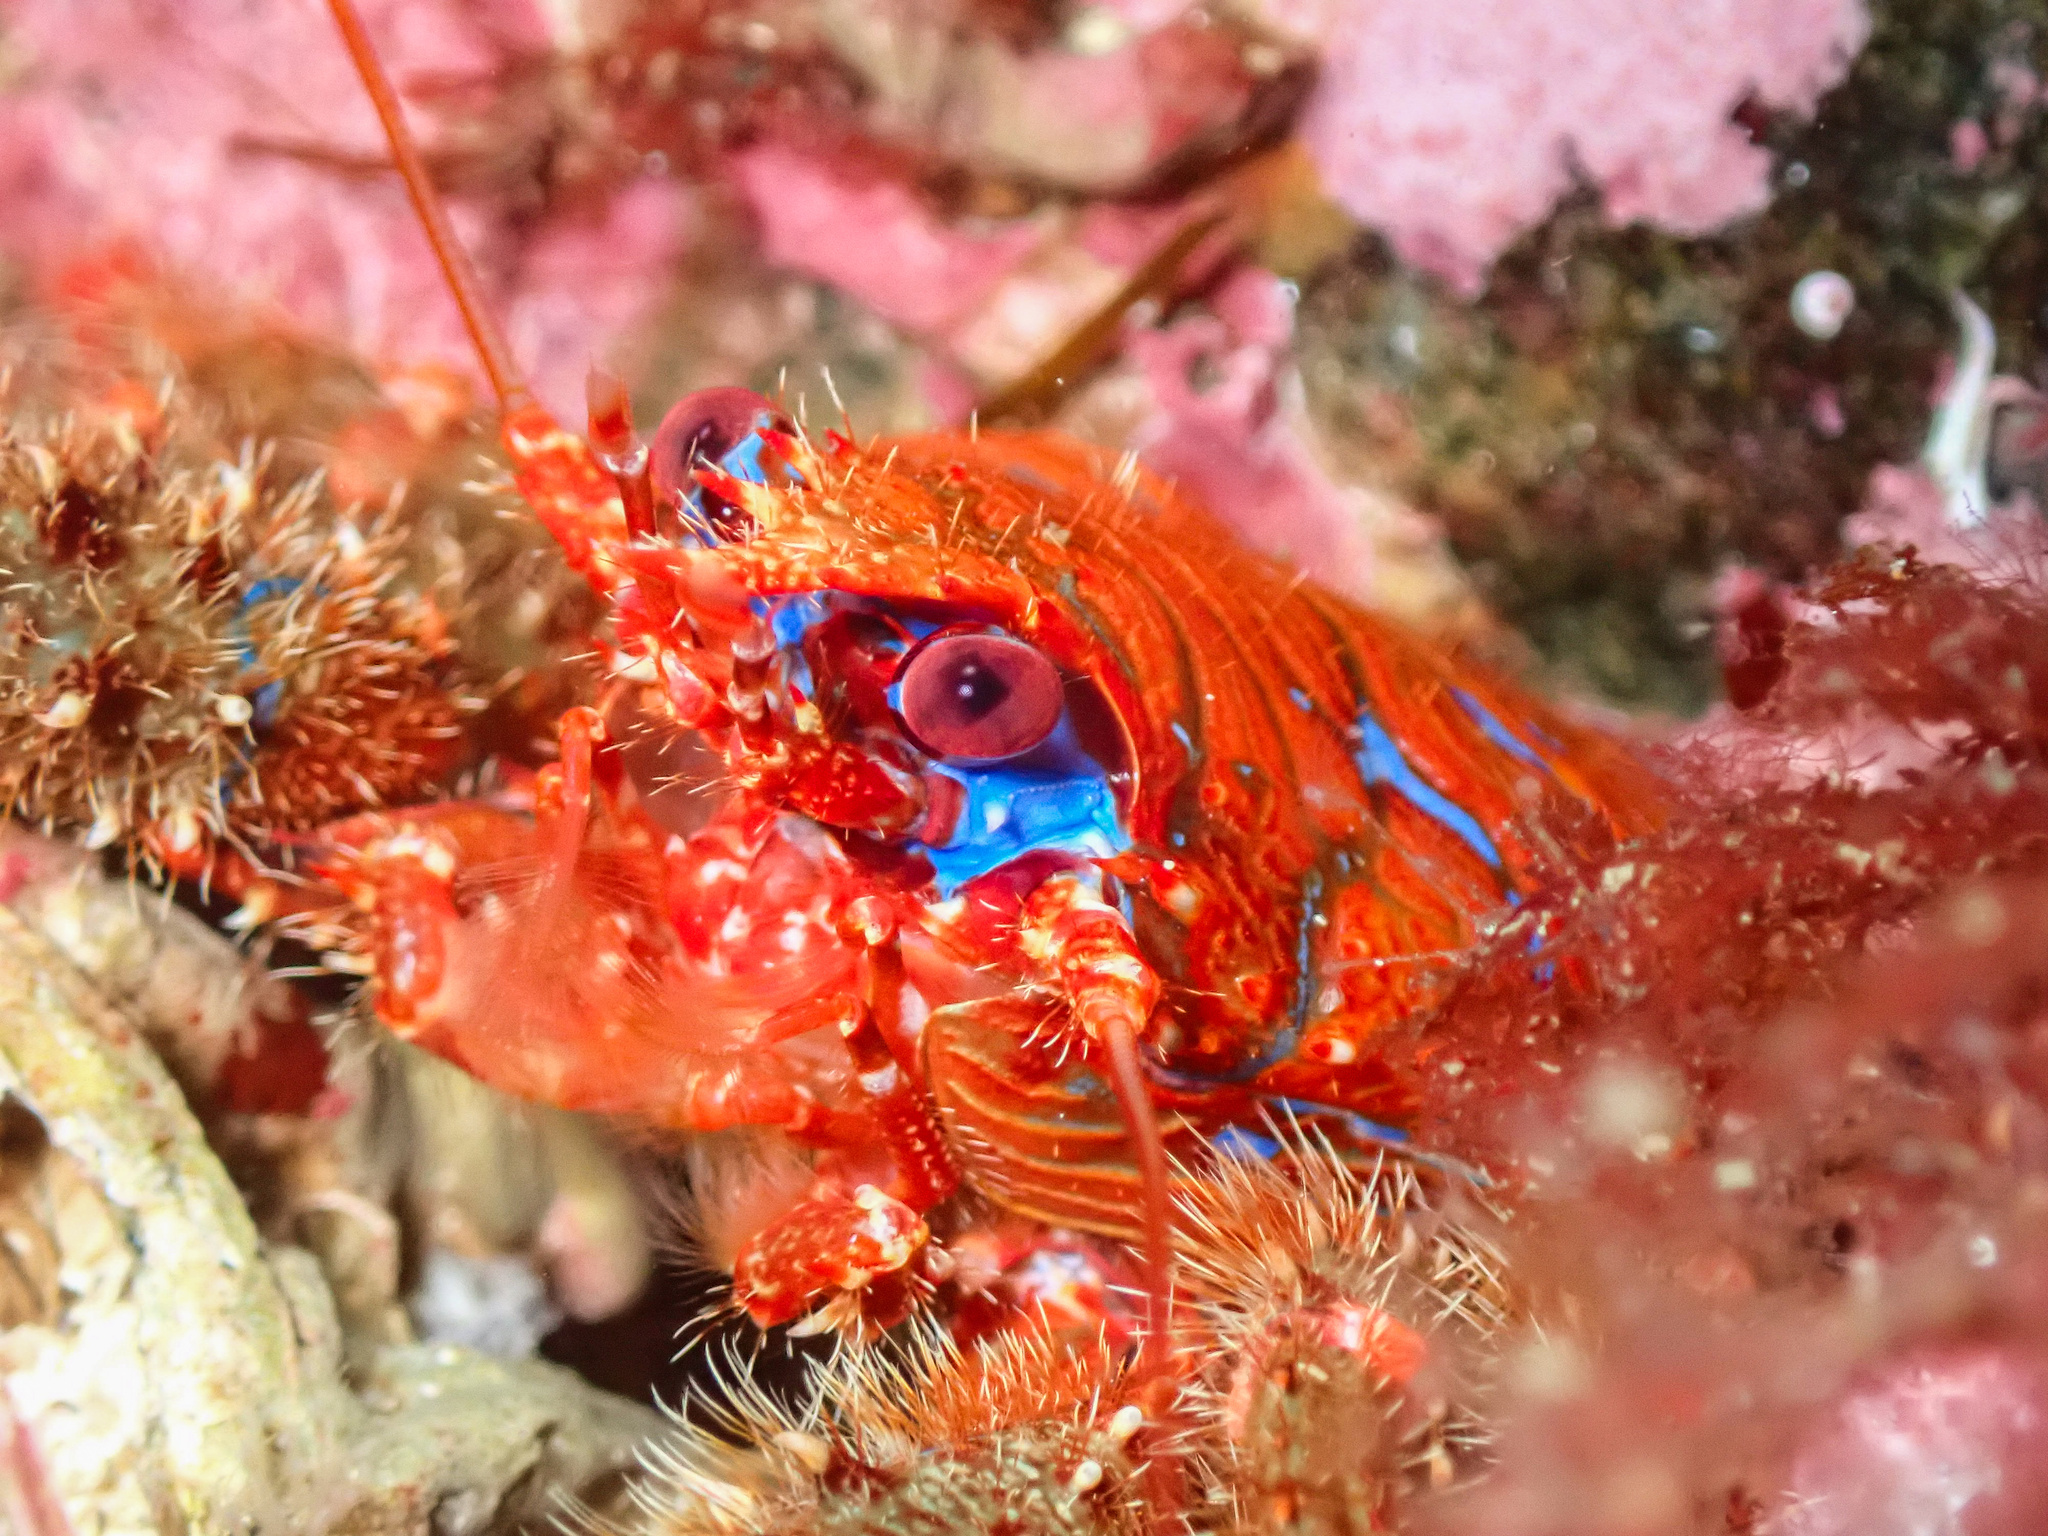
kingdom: Animalia
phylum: Arthropoda
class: Malacostraca
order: Decapoda
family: Galatheidae
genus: Galathea
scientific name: Galathea strigosa
